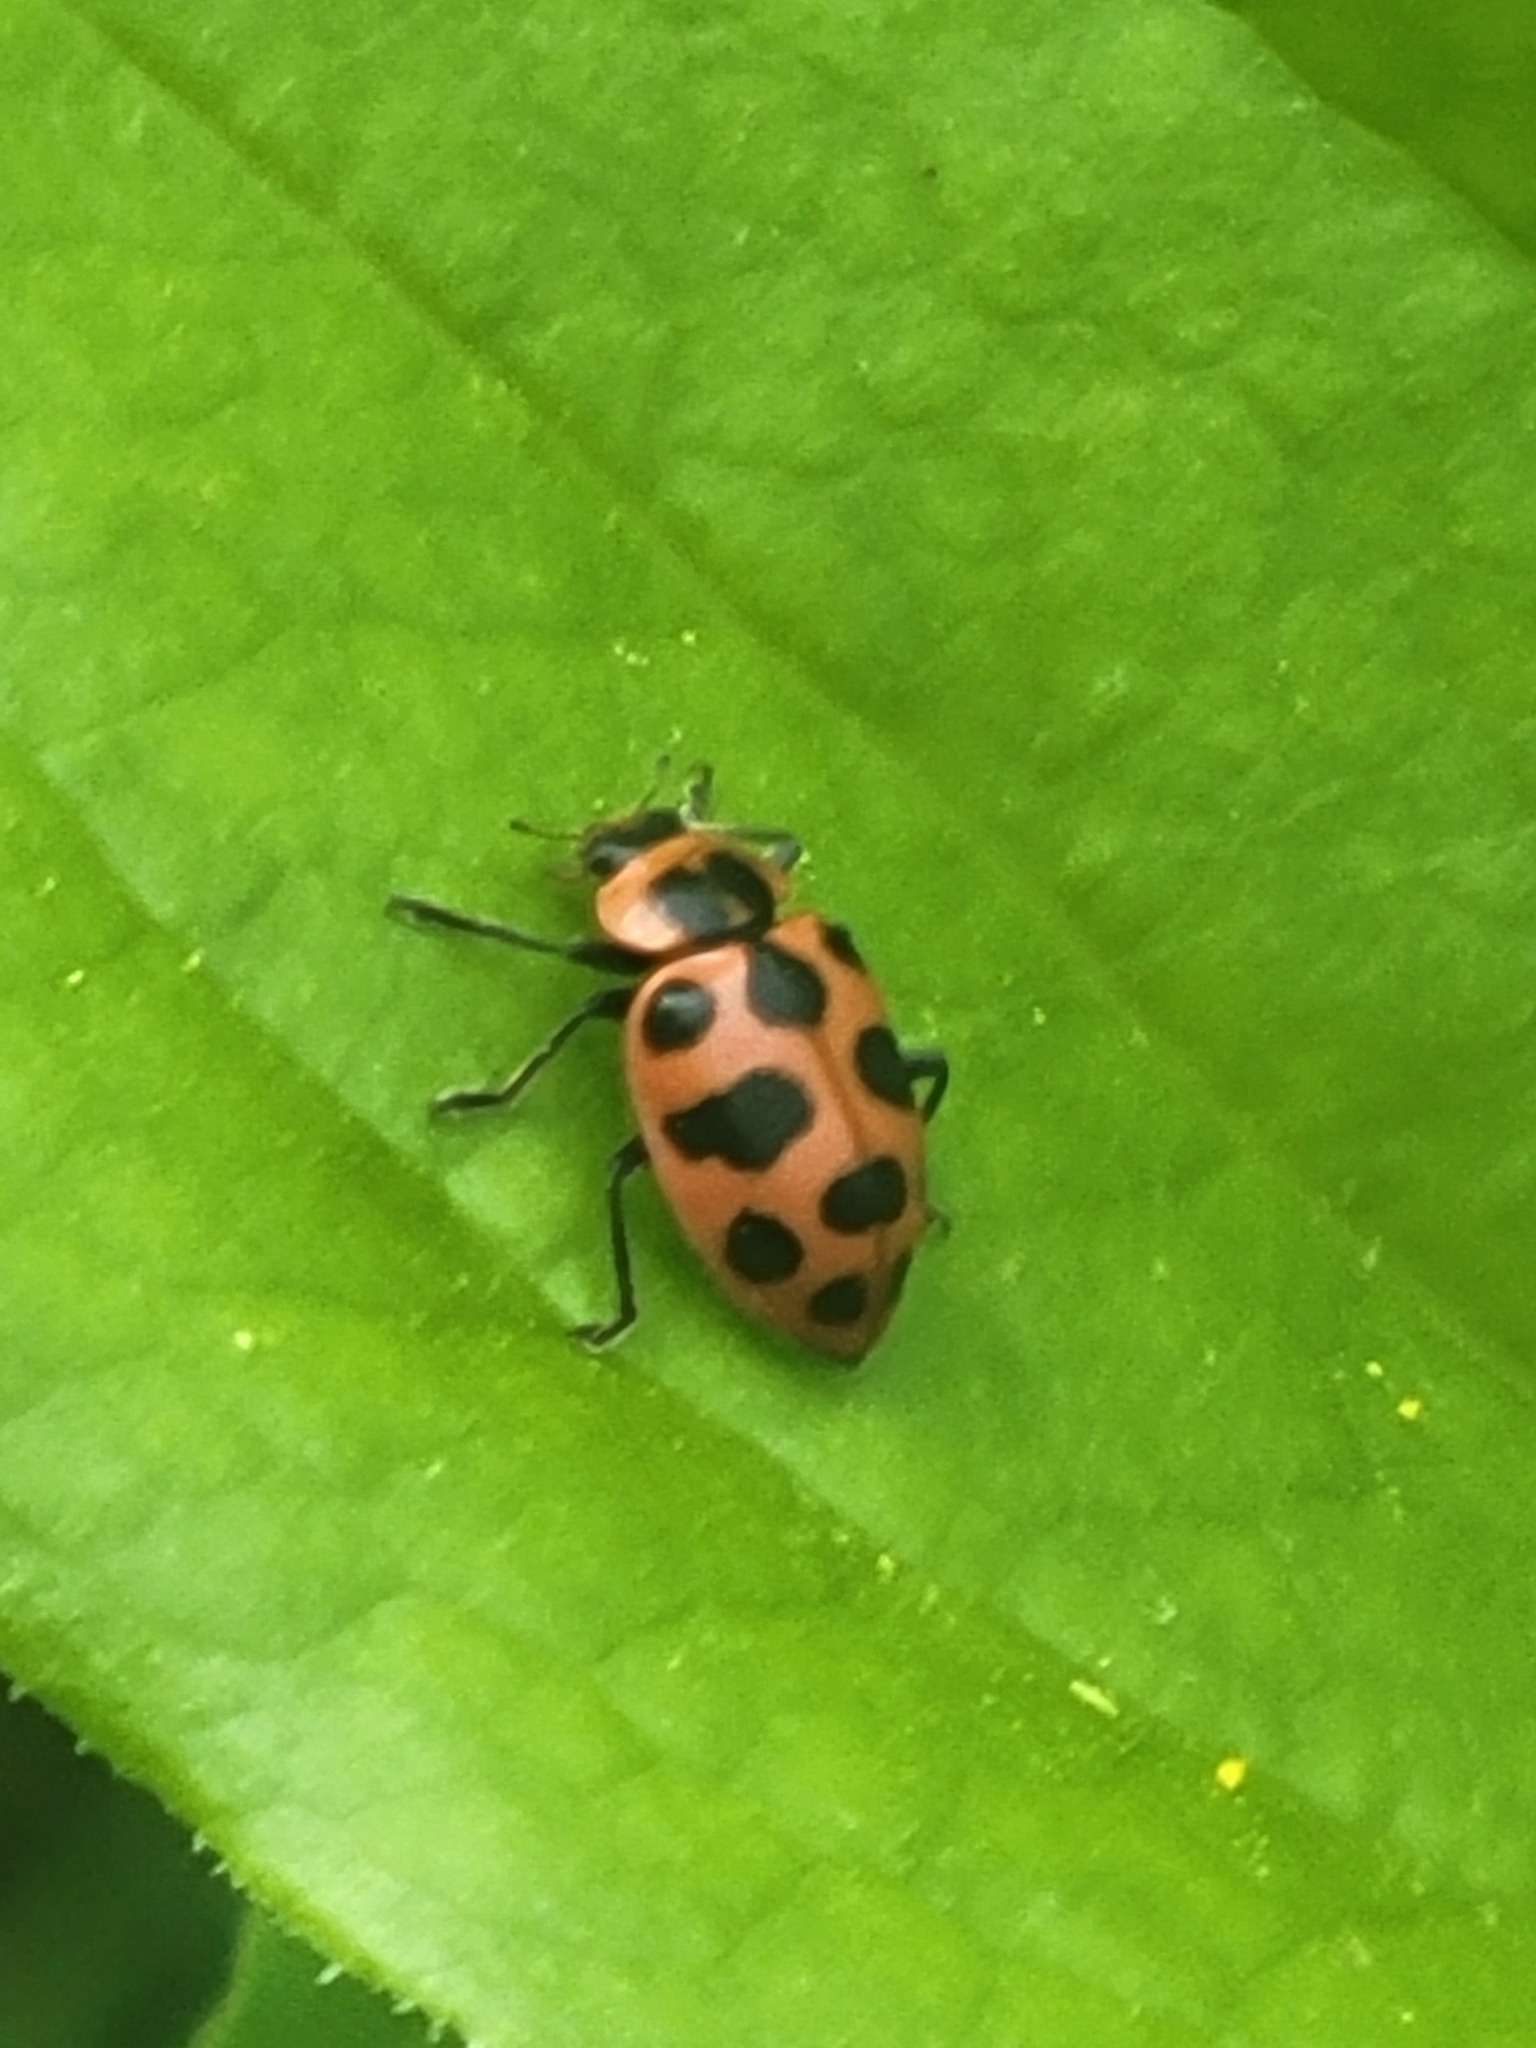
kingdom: Animalia
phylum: Arthropoda
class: Insecta
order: Coleoptera
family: Coccinellidae
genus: Coleomegilla
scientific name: Coleomegilla maculata
